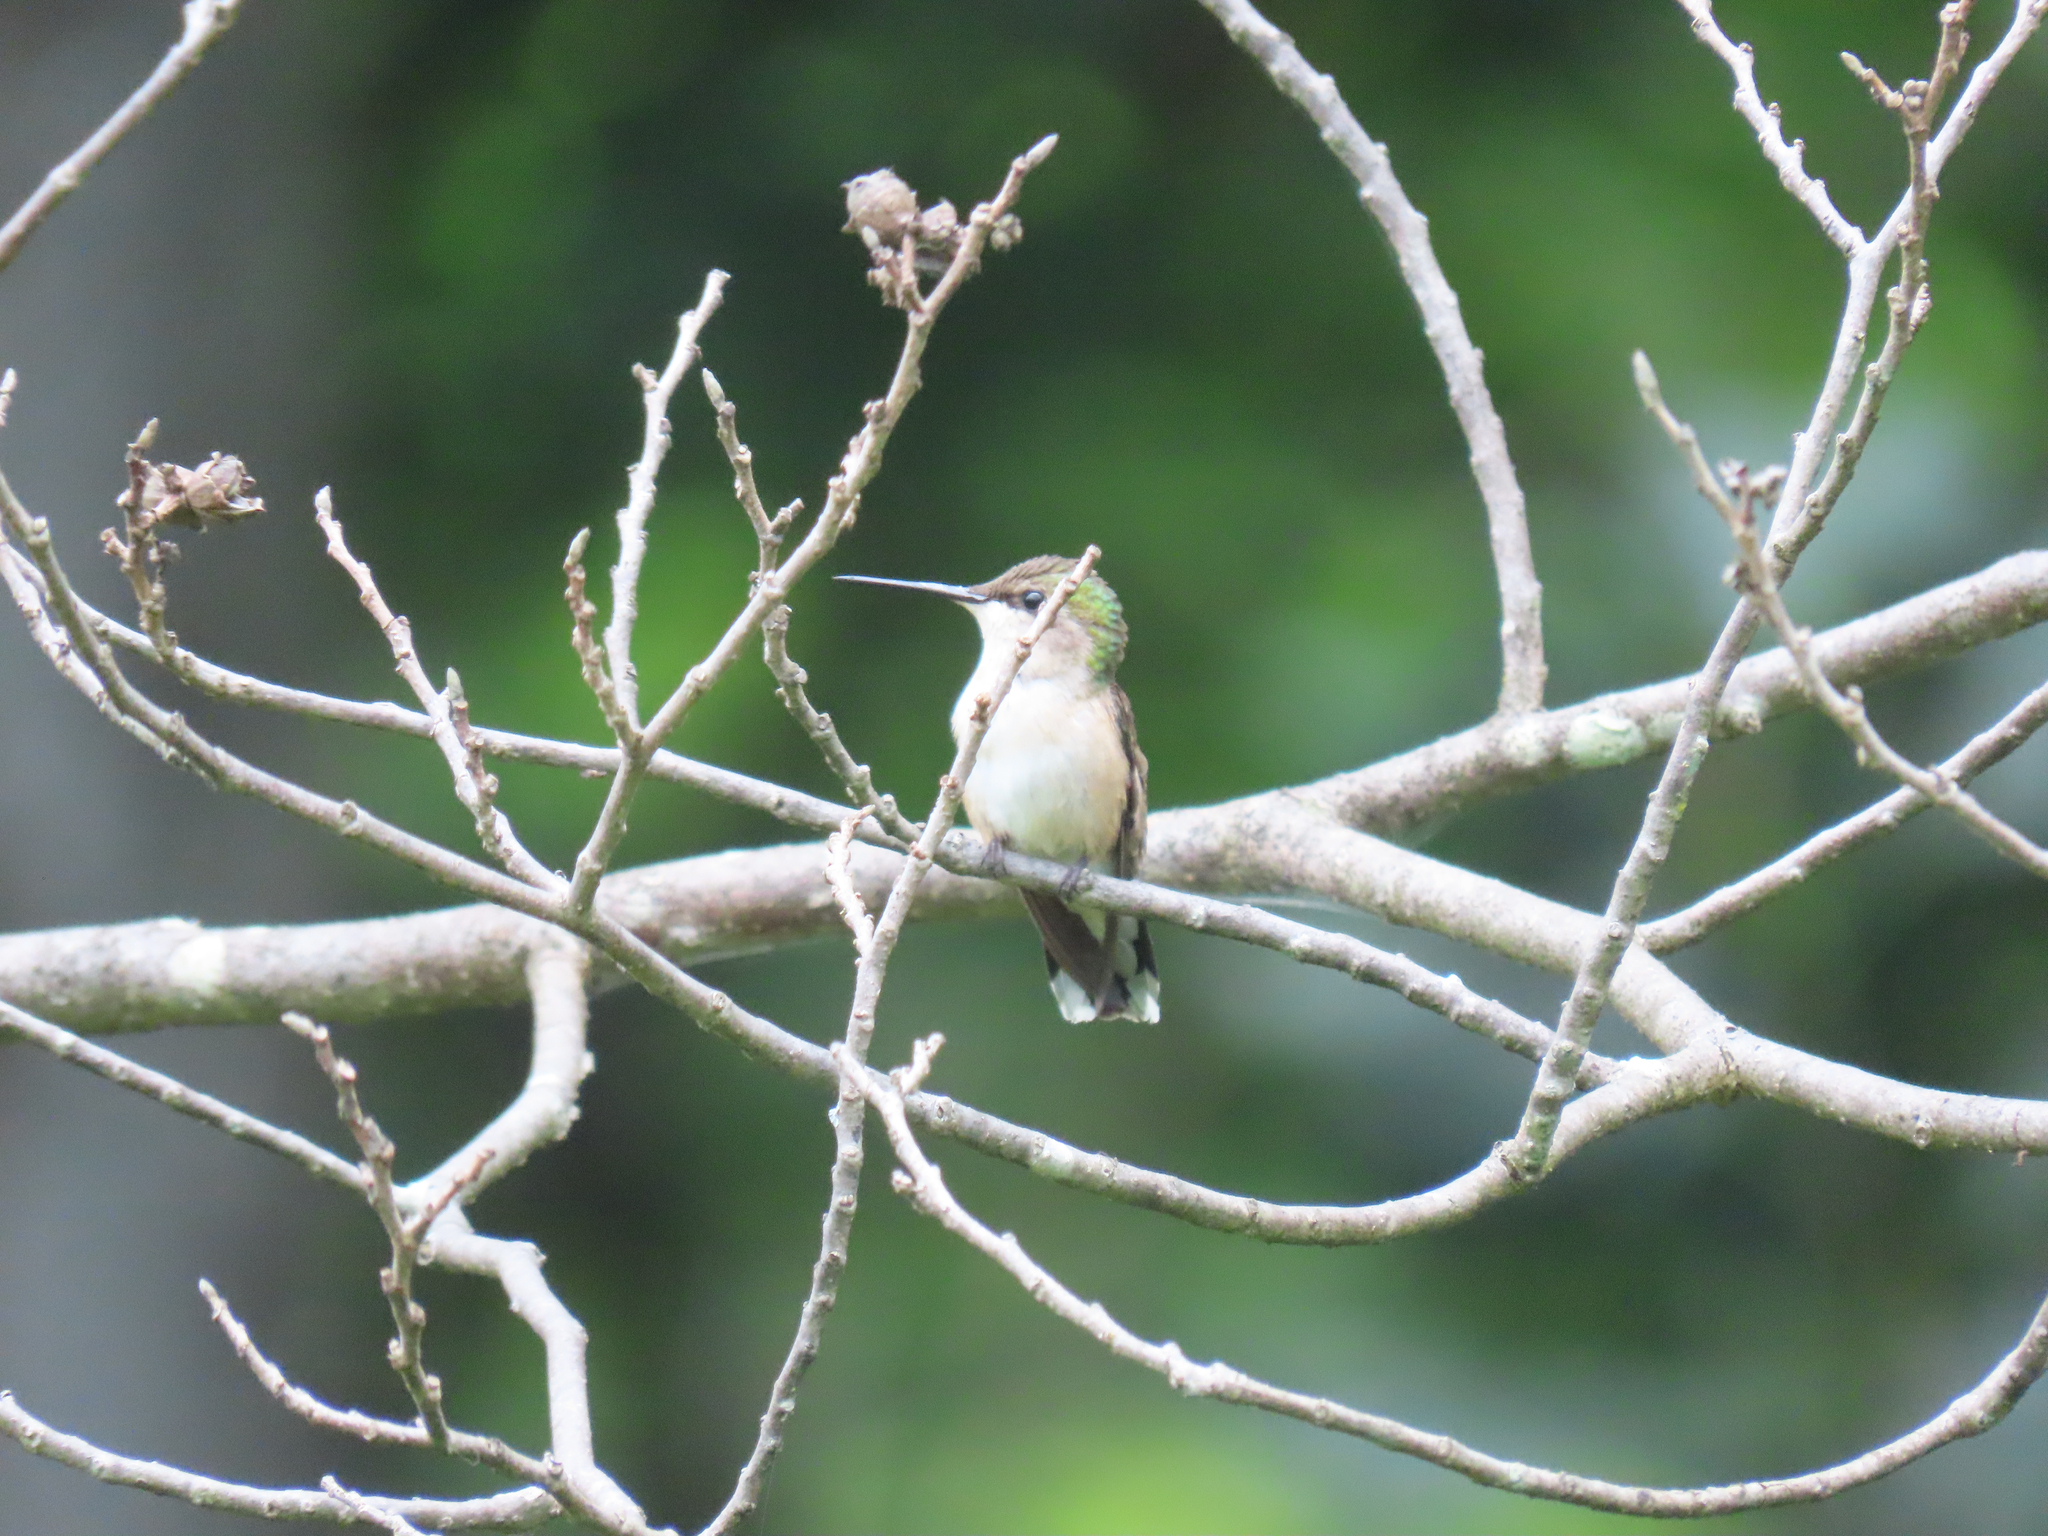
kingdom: Animalia
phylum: Chordata
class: Aves
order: Apodiformes
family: Trochilidae
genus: Archilochus
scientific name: Archilochus colubris
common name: Ruby-throated hummingbird
